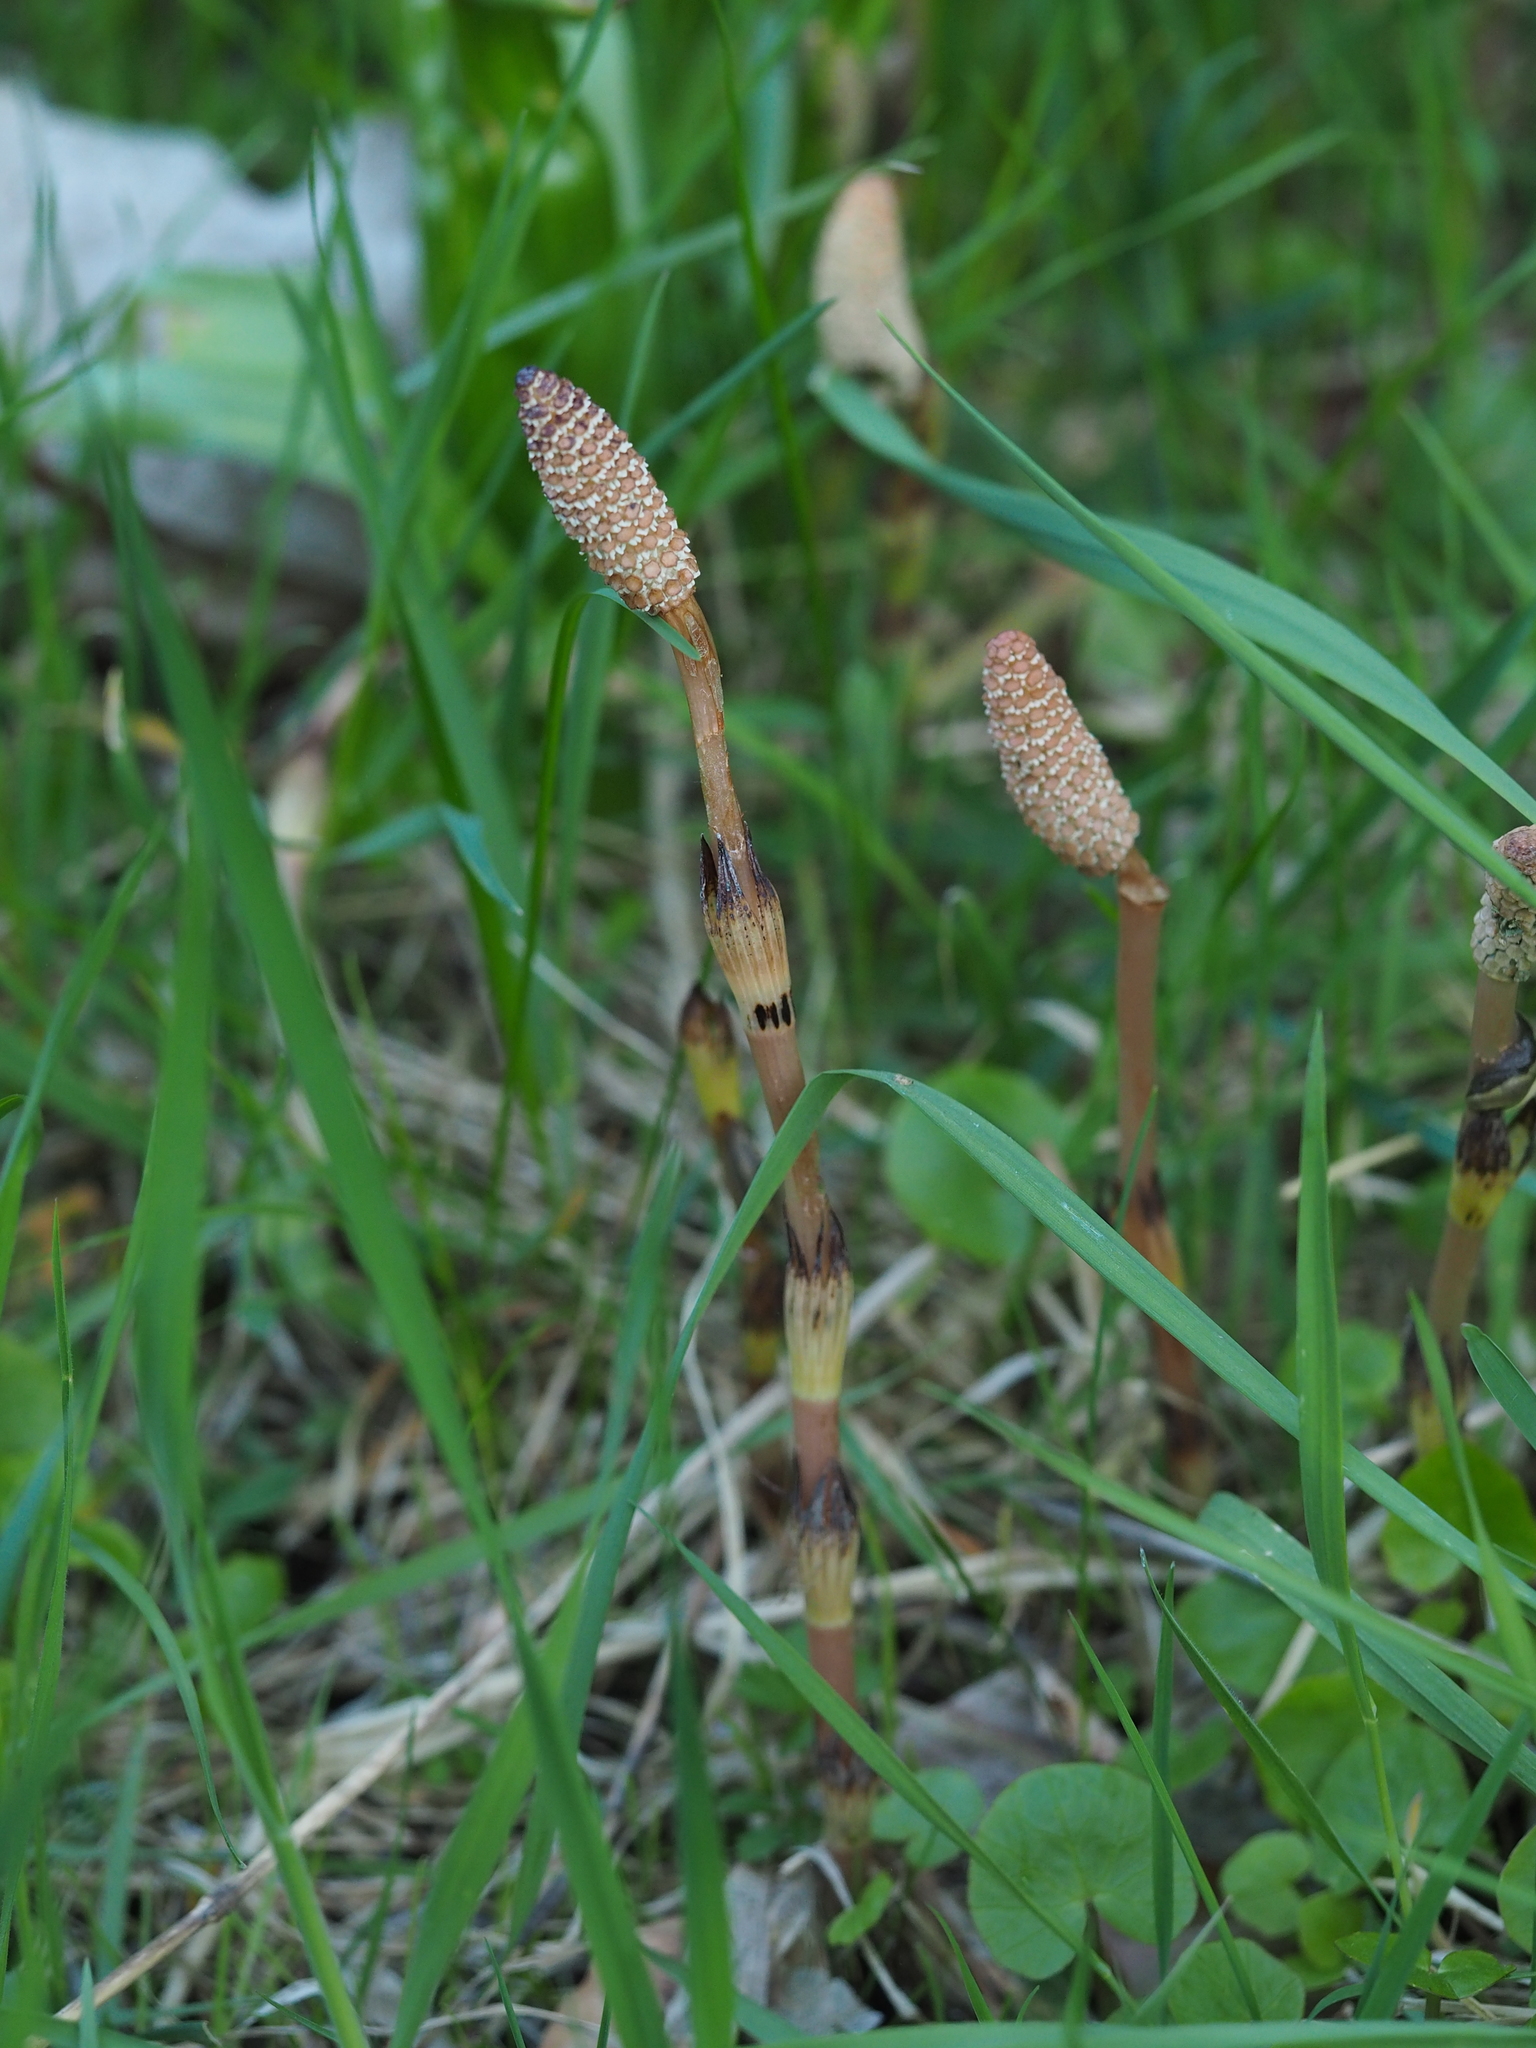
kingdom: Plantae
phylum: Tracheophyta
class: Polypodiopsida
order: Equisetales
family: Equisetaceae
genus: Equisetum
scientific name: Equisetum arvense
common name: Field horsetail
